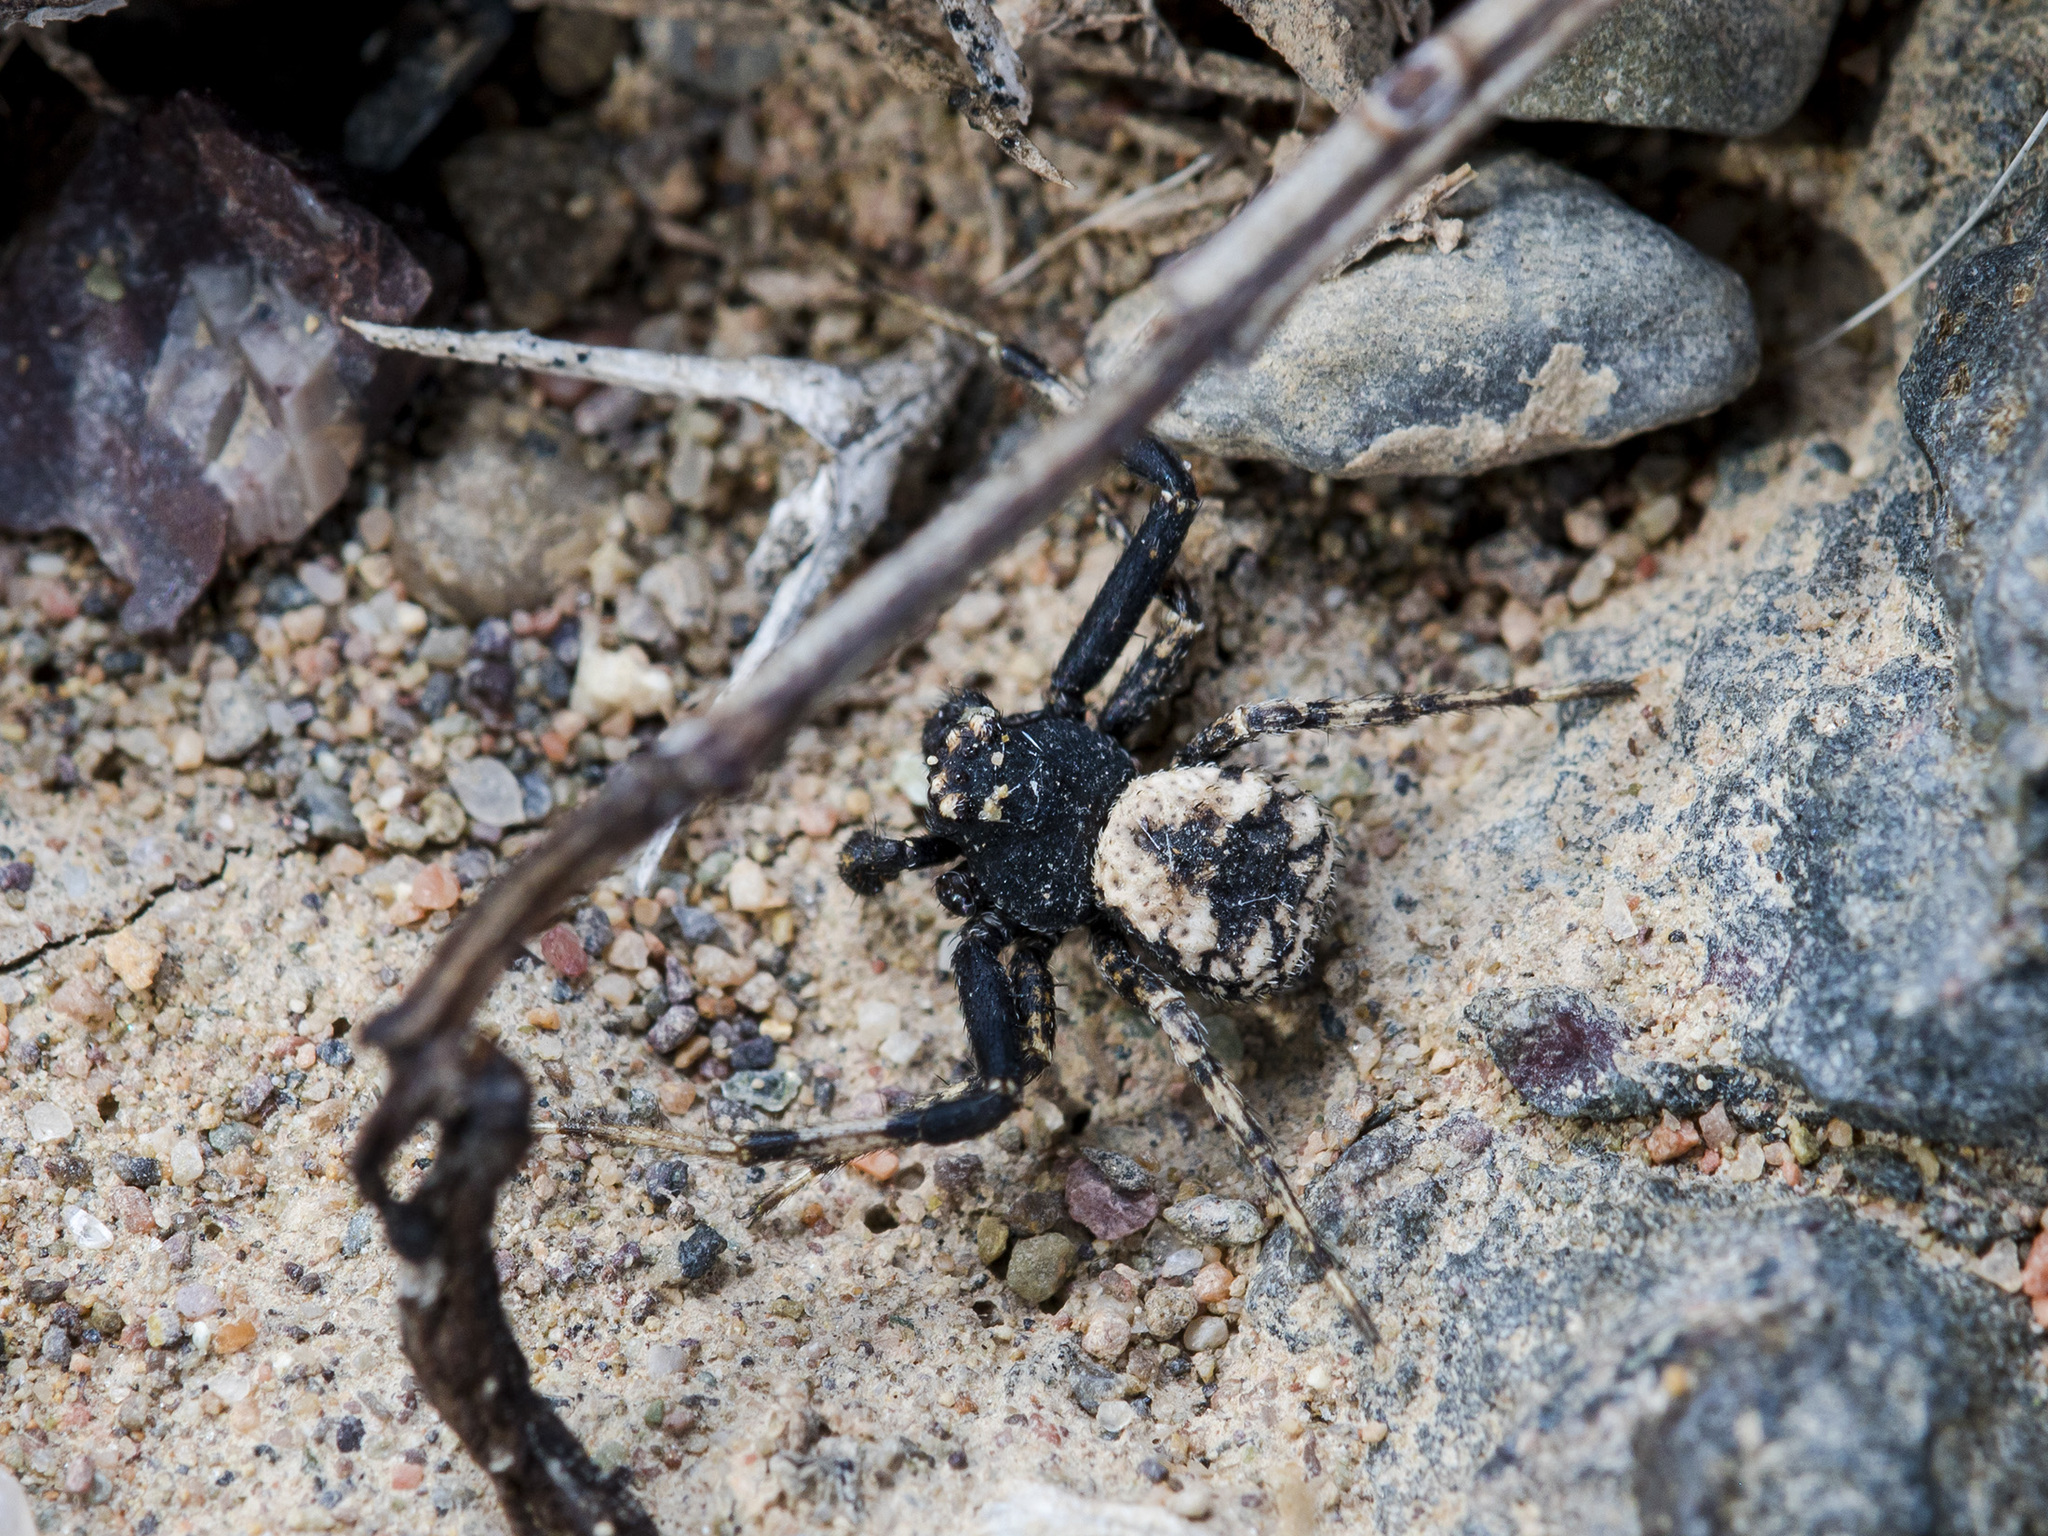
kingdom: Animalia
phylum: Arthropoda
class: Arachnida
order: Araneae
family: Thomisidae
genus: Ozyptila
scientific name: Ozyptila lugubris
